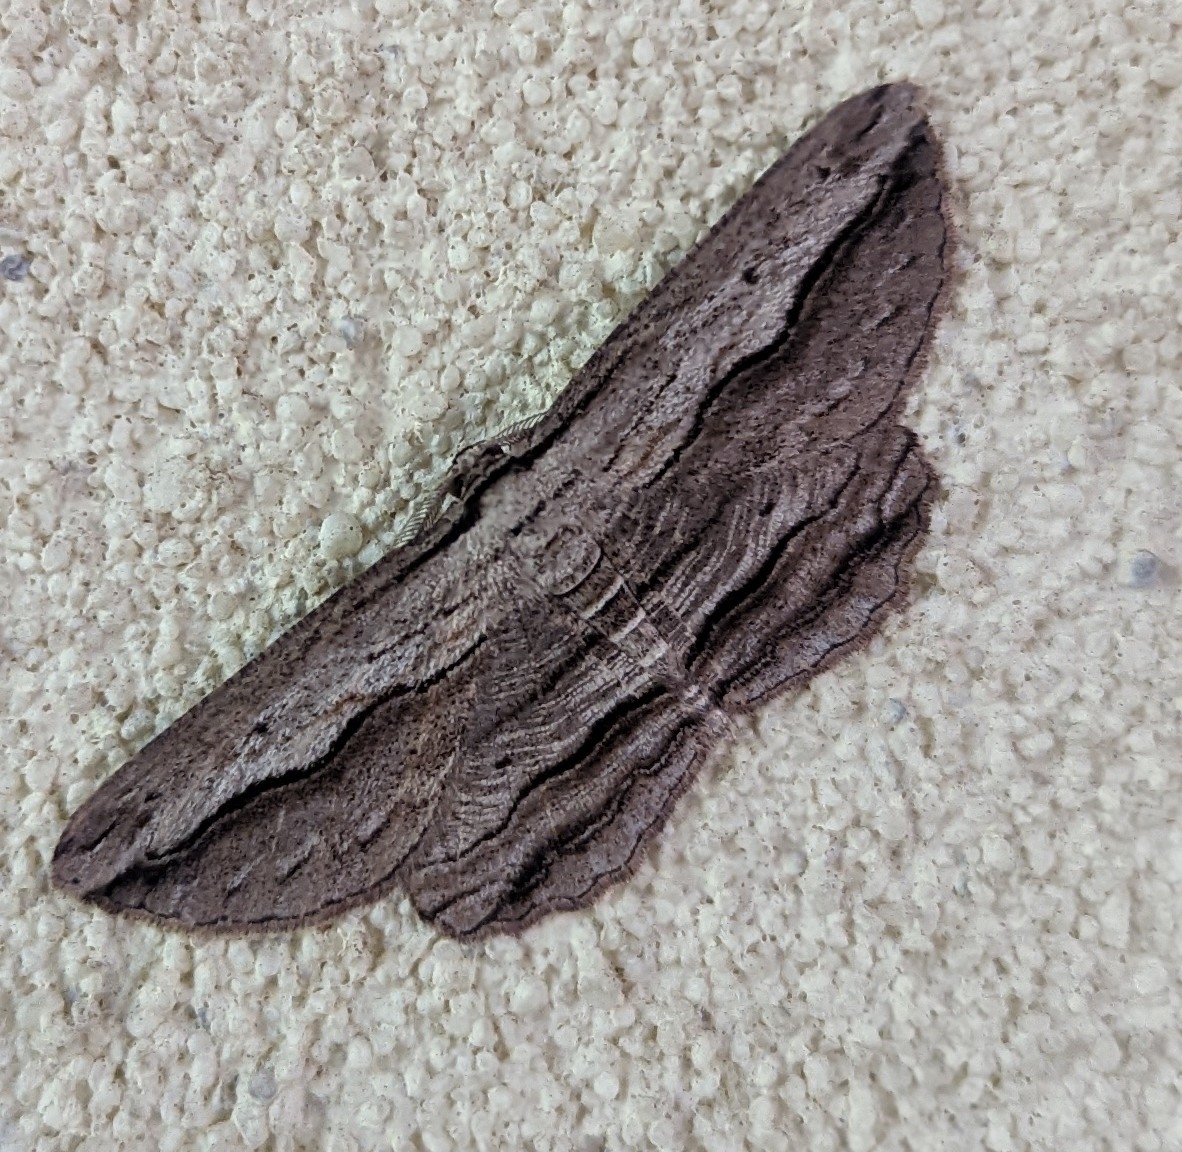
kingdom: Animalia
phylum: Arthropoda
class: Insecta
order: Lepidoptera
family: Geometridae
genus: Euphronarcha
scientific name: Euphronarcha luxaria
